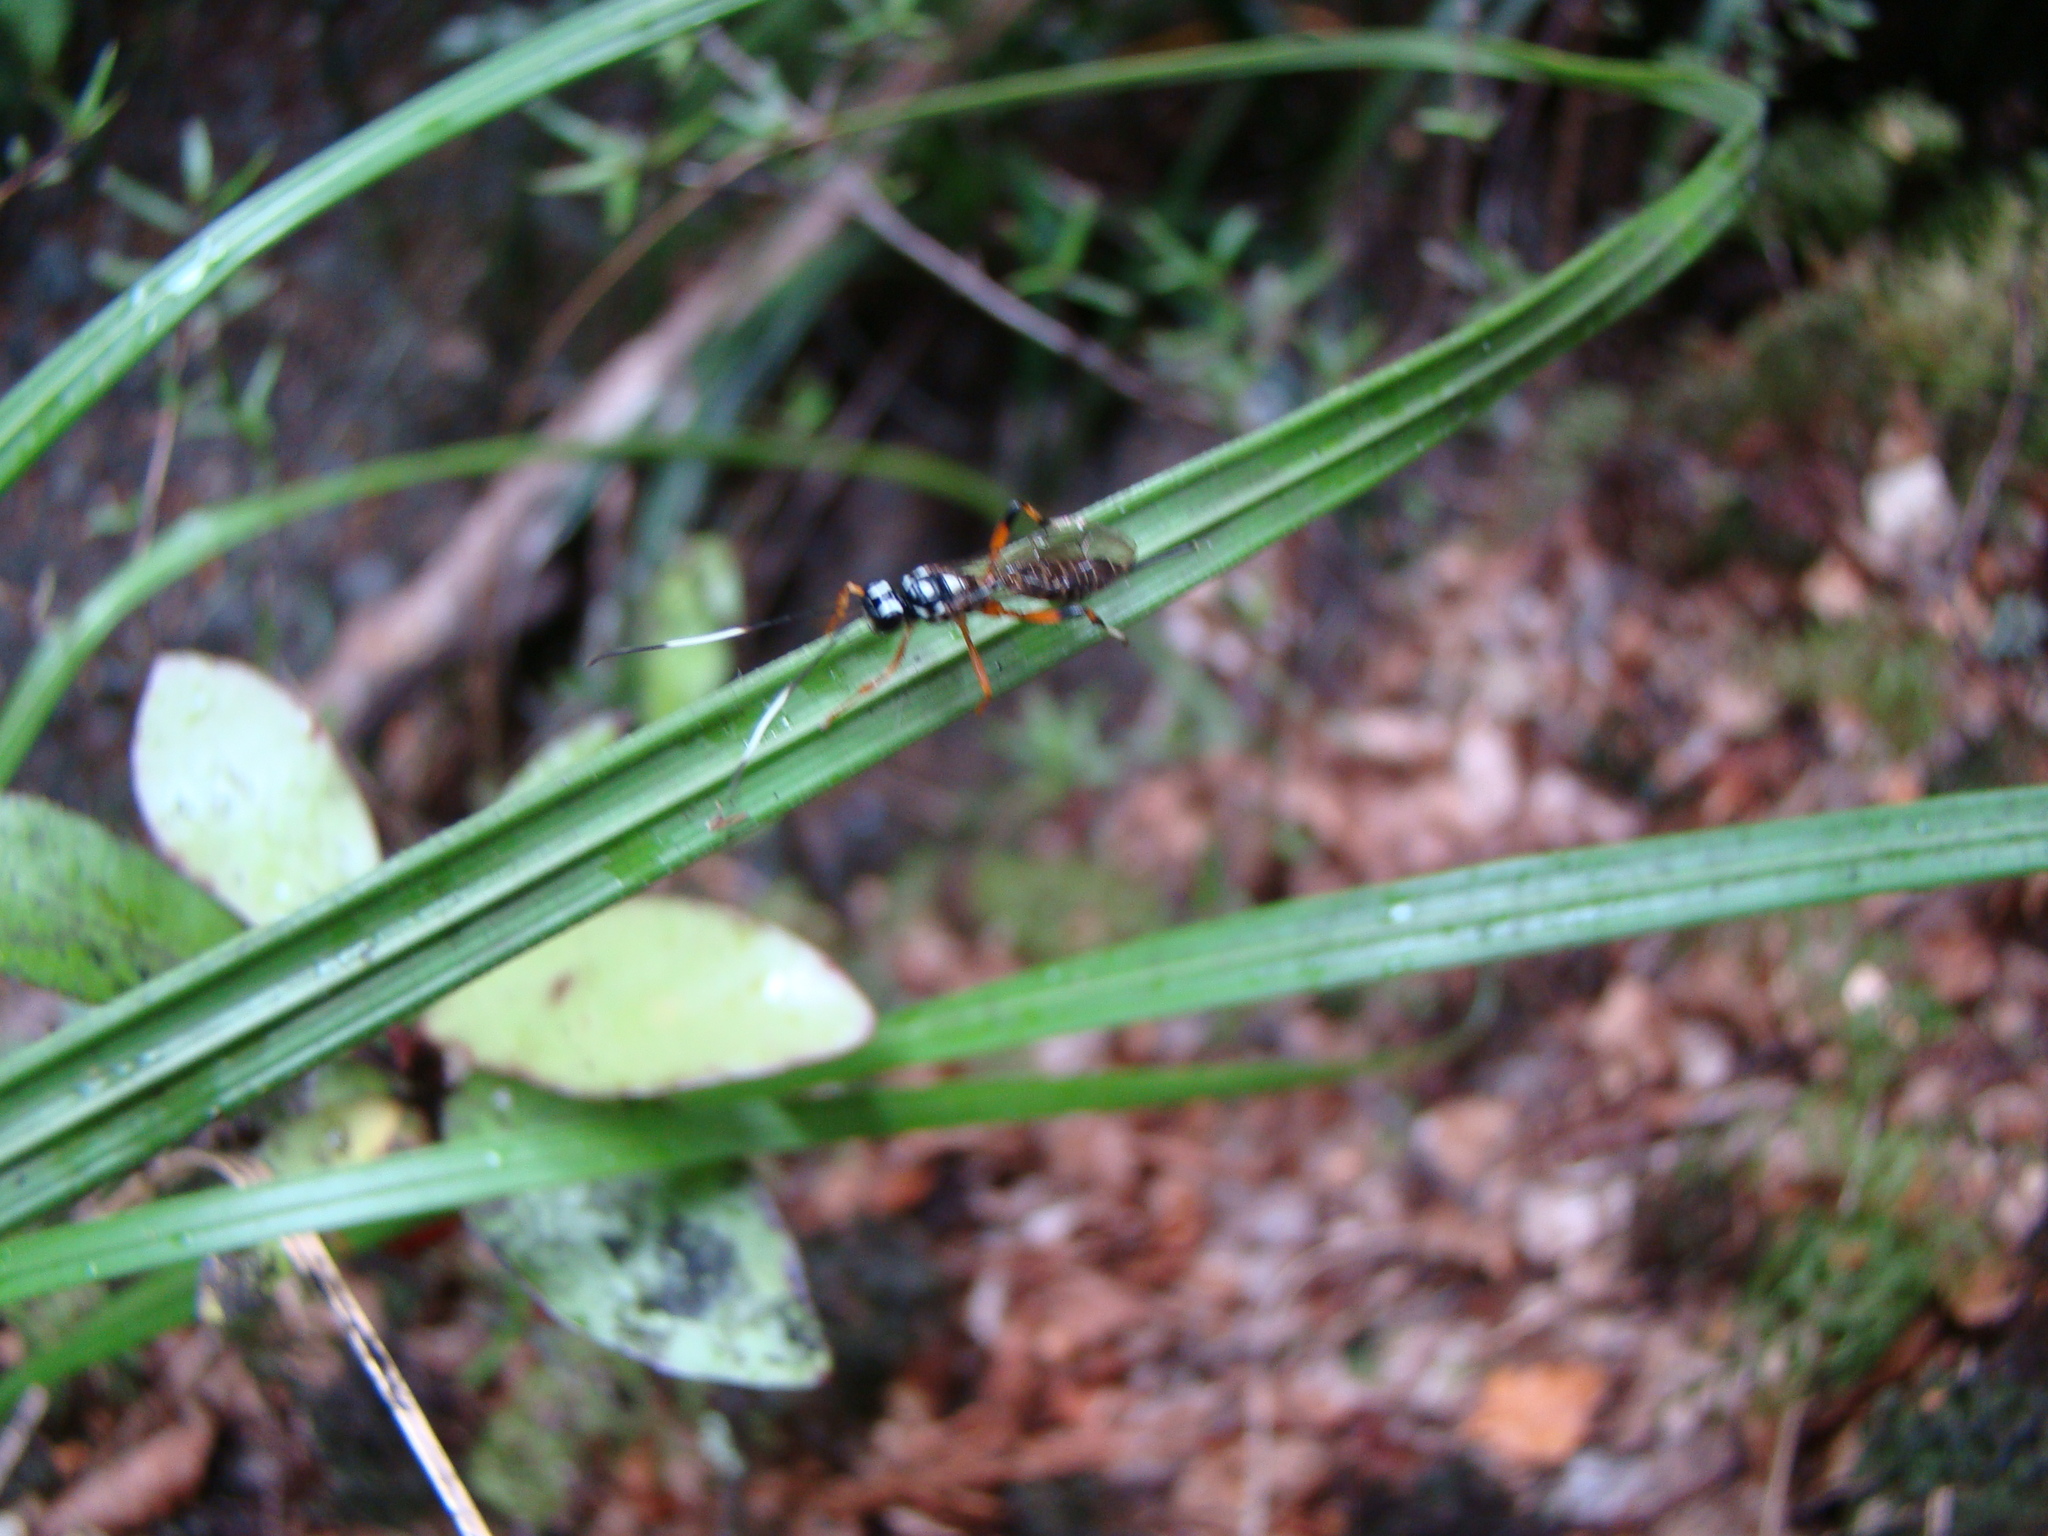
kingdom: Animalia
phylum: Arthropoda
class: Insecta
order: Hymenoptera
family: Ichneumonidae
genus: Xanthocryptus
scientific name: Xanthocryptus novozealandicus
